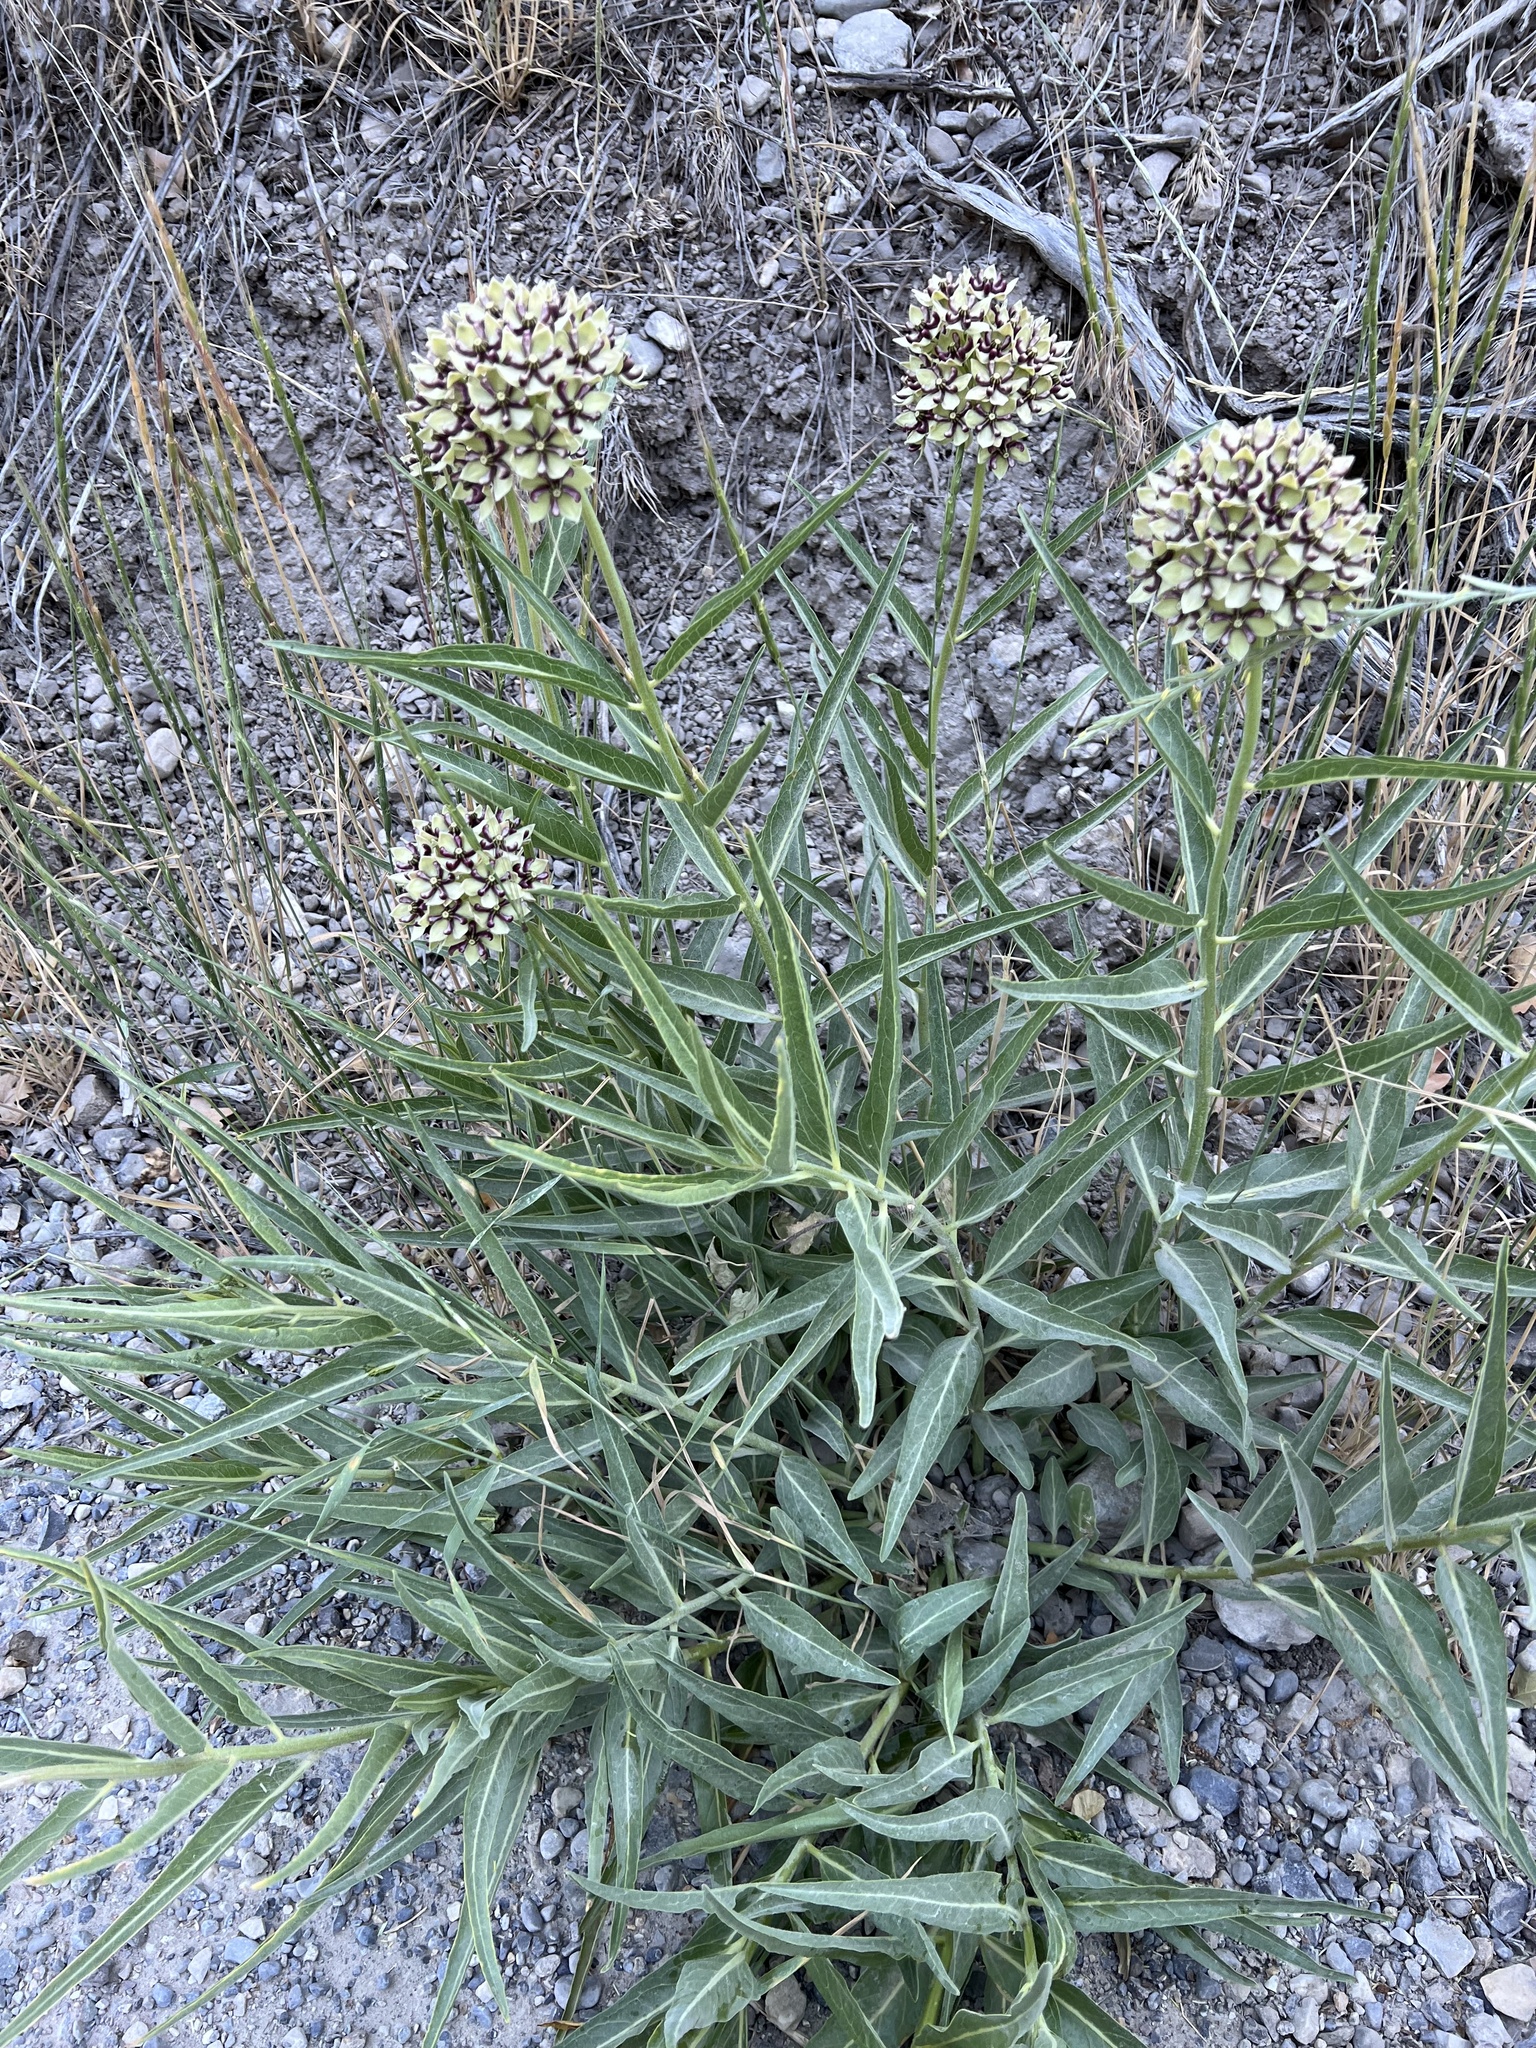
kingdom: Plantae
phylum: Tracheophyta
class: Magnoliopsida
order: Gentianales
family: Apocynaceae
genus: Asclepias
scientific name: Asclepias asperula
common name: Antelope horns
